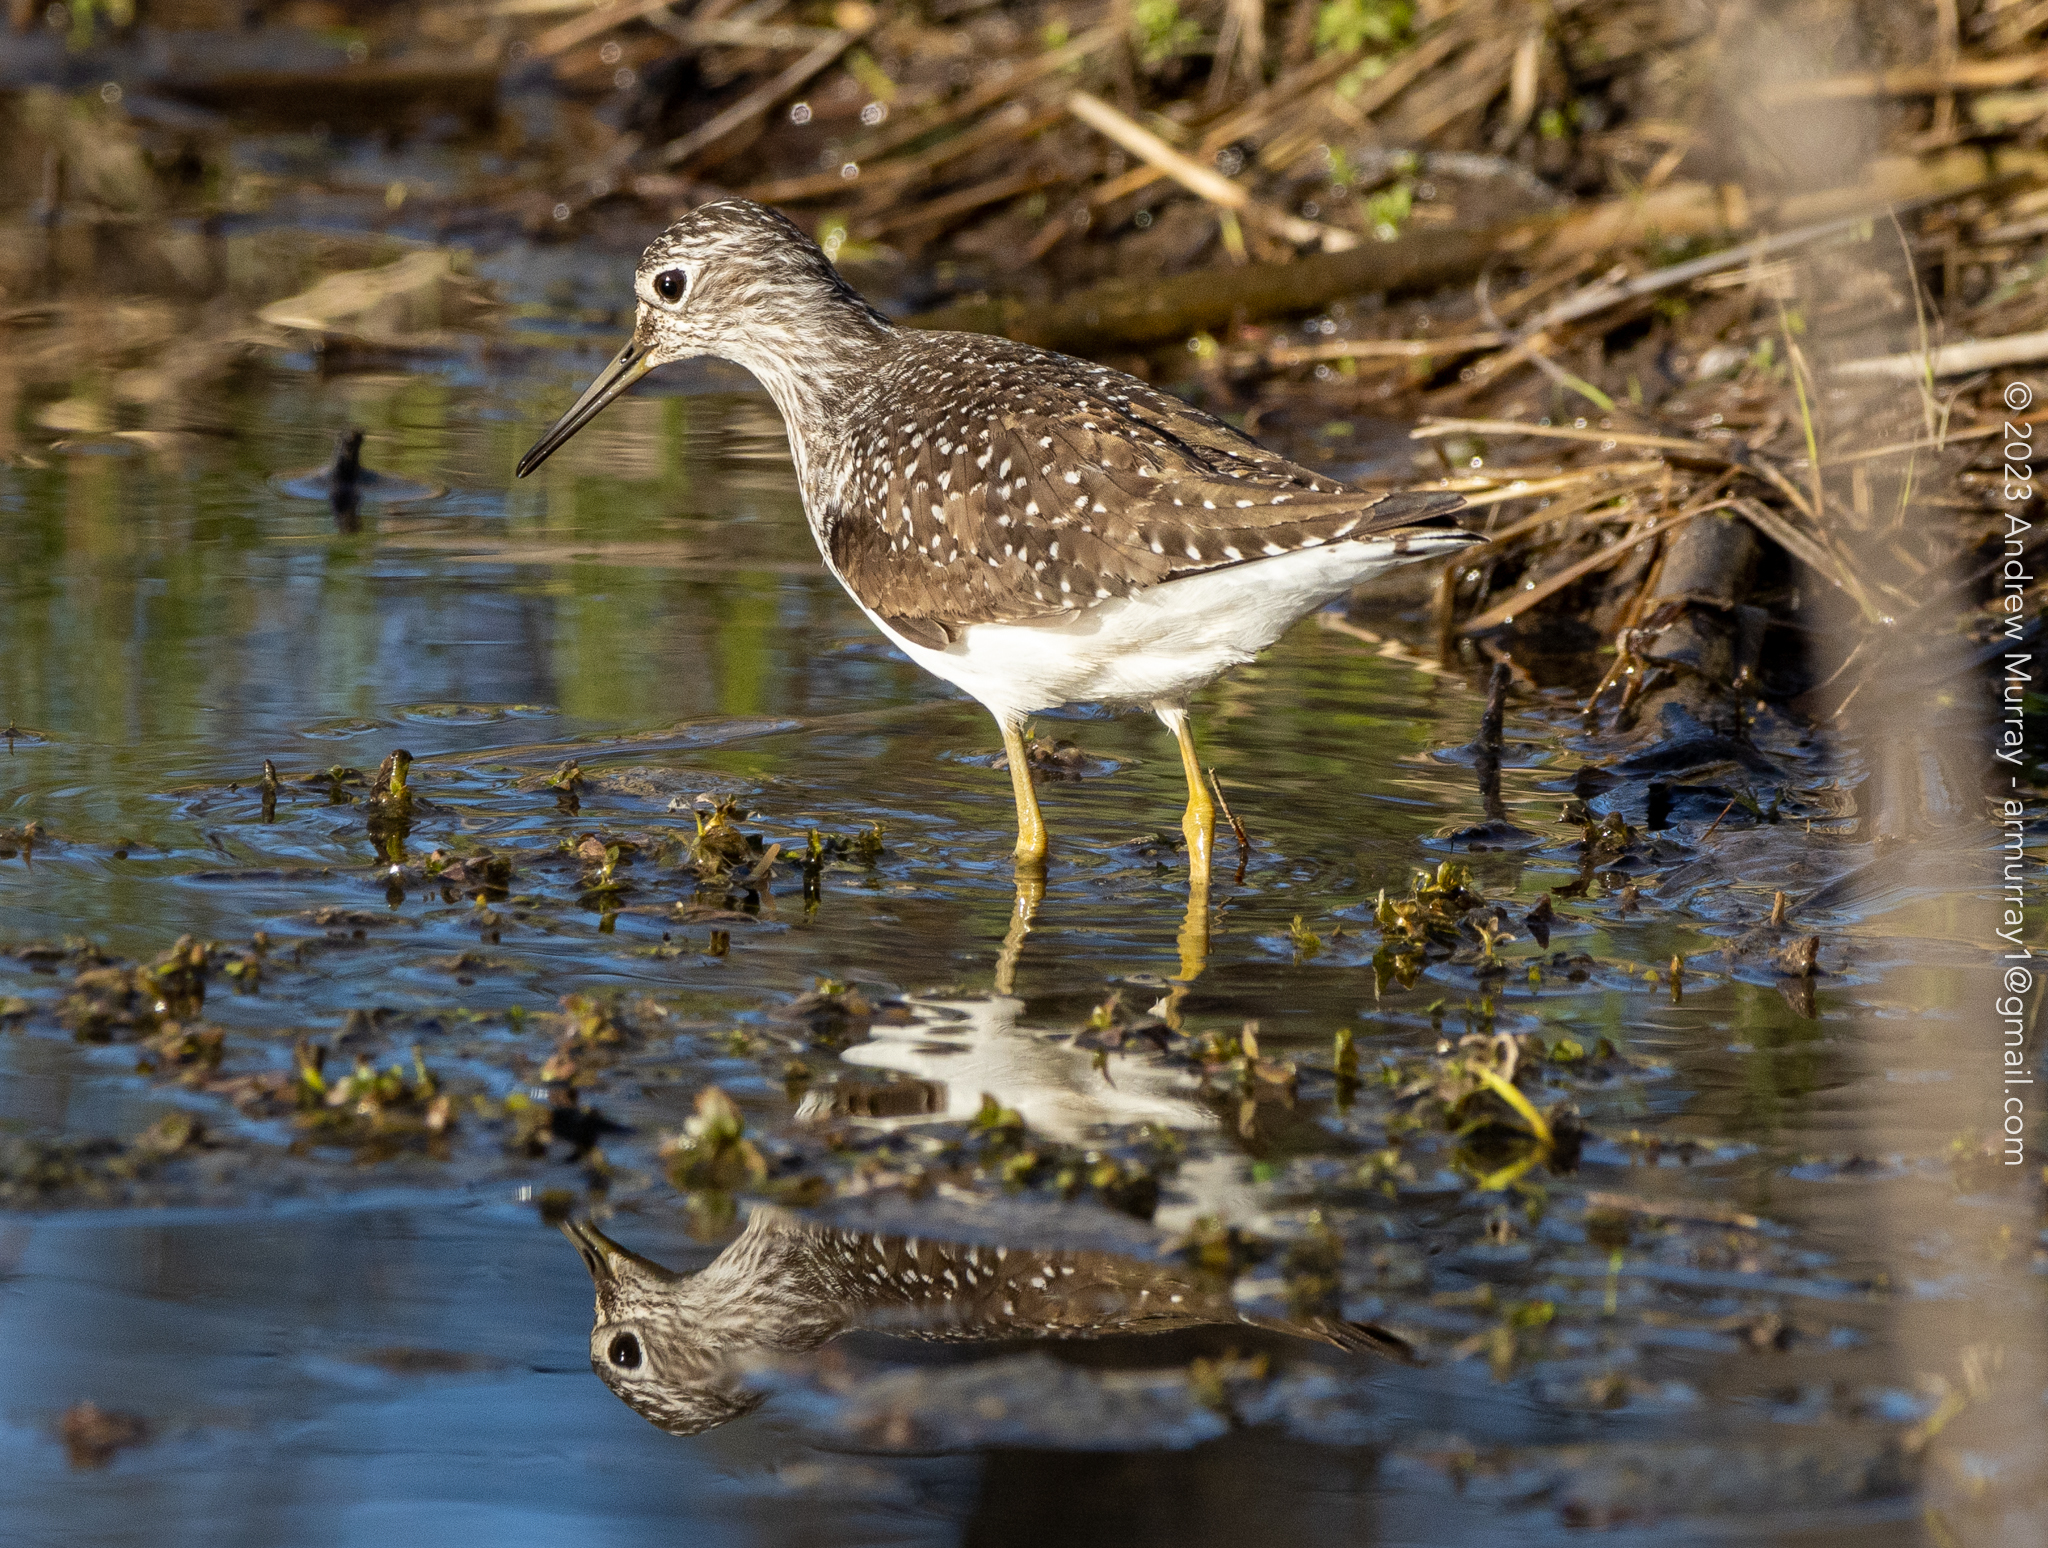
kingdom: Animalia
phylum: Chordata
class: Aves
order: Charadriiformes
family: Scolopacidae
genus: Tringa
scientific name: Tringa solitaria
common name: Solitary sandpiper
